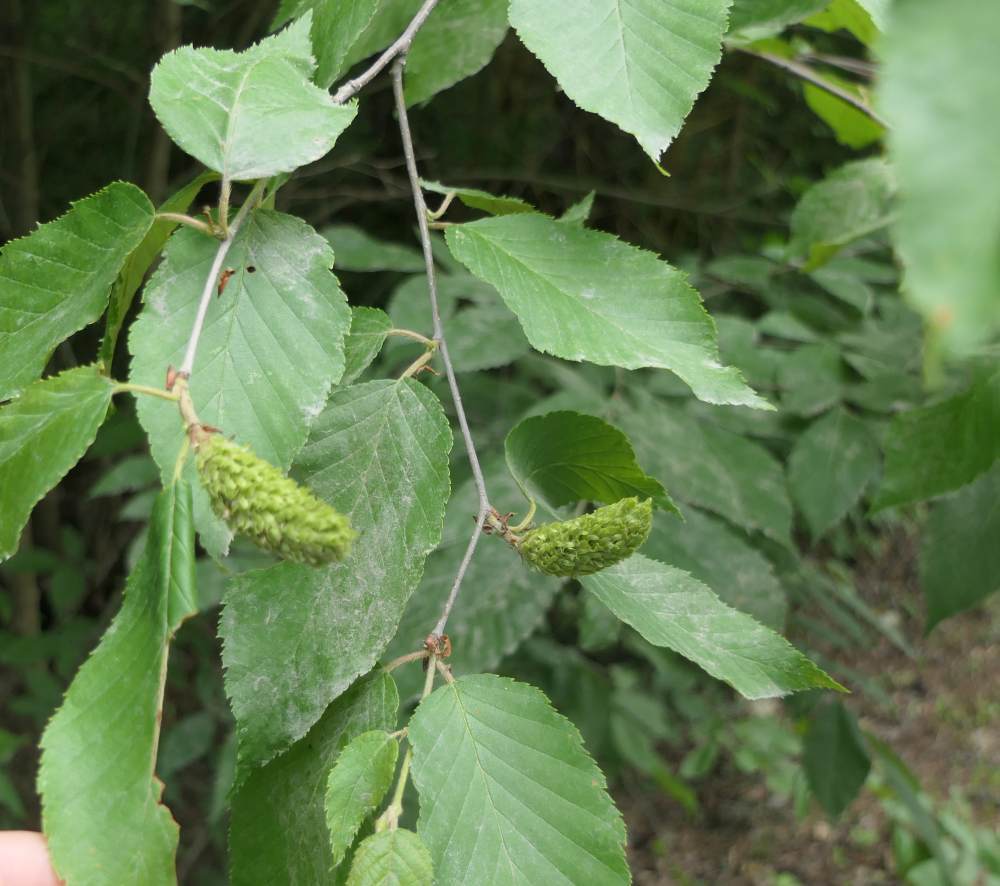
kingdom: Plantae
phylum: Tracheophyta
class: Magnoliopsida
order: Fagales
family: Betulaceae
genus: Betula
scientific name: Betula alleghaniensis
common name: Yellow birch
